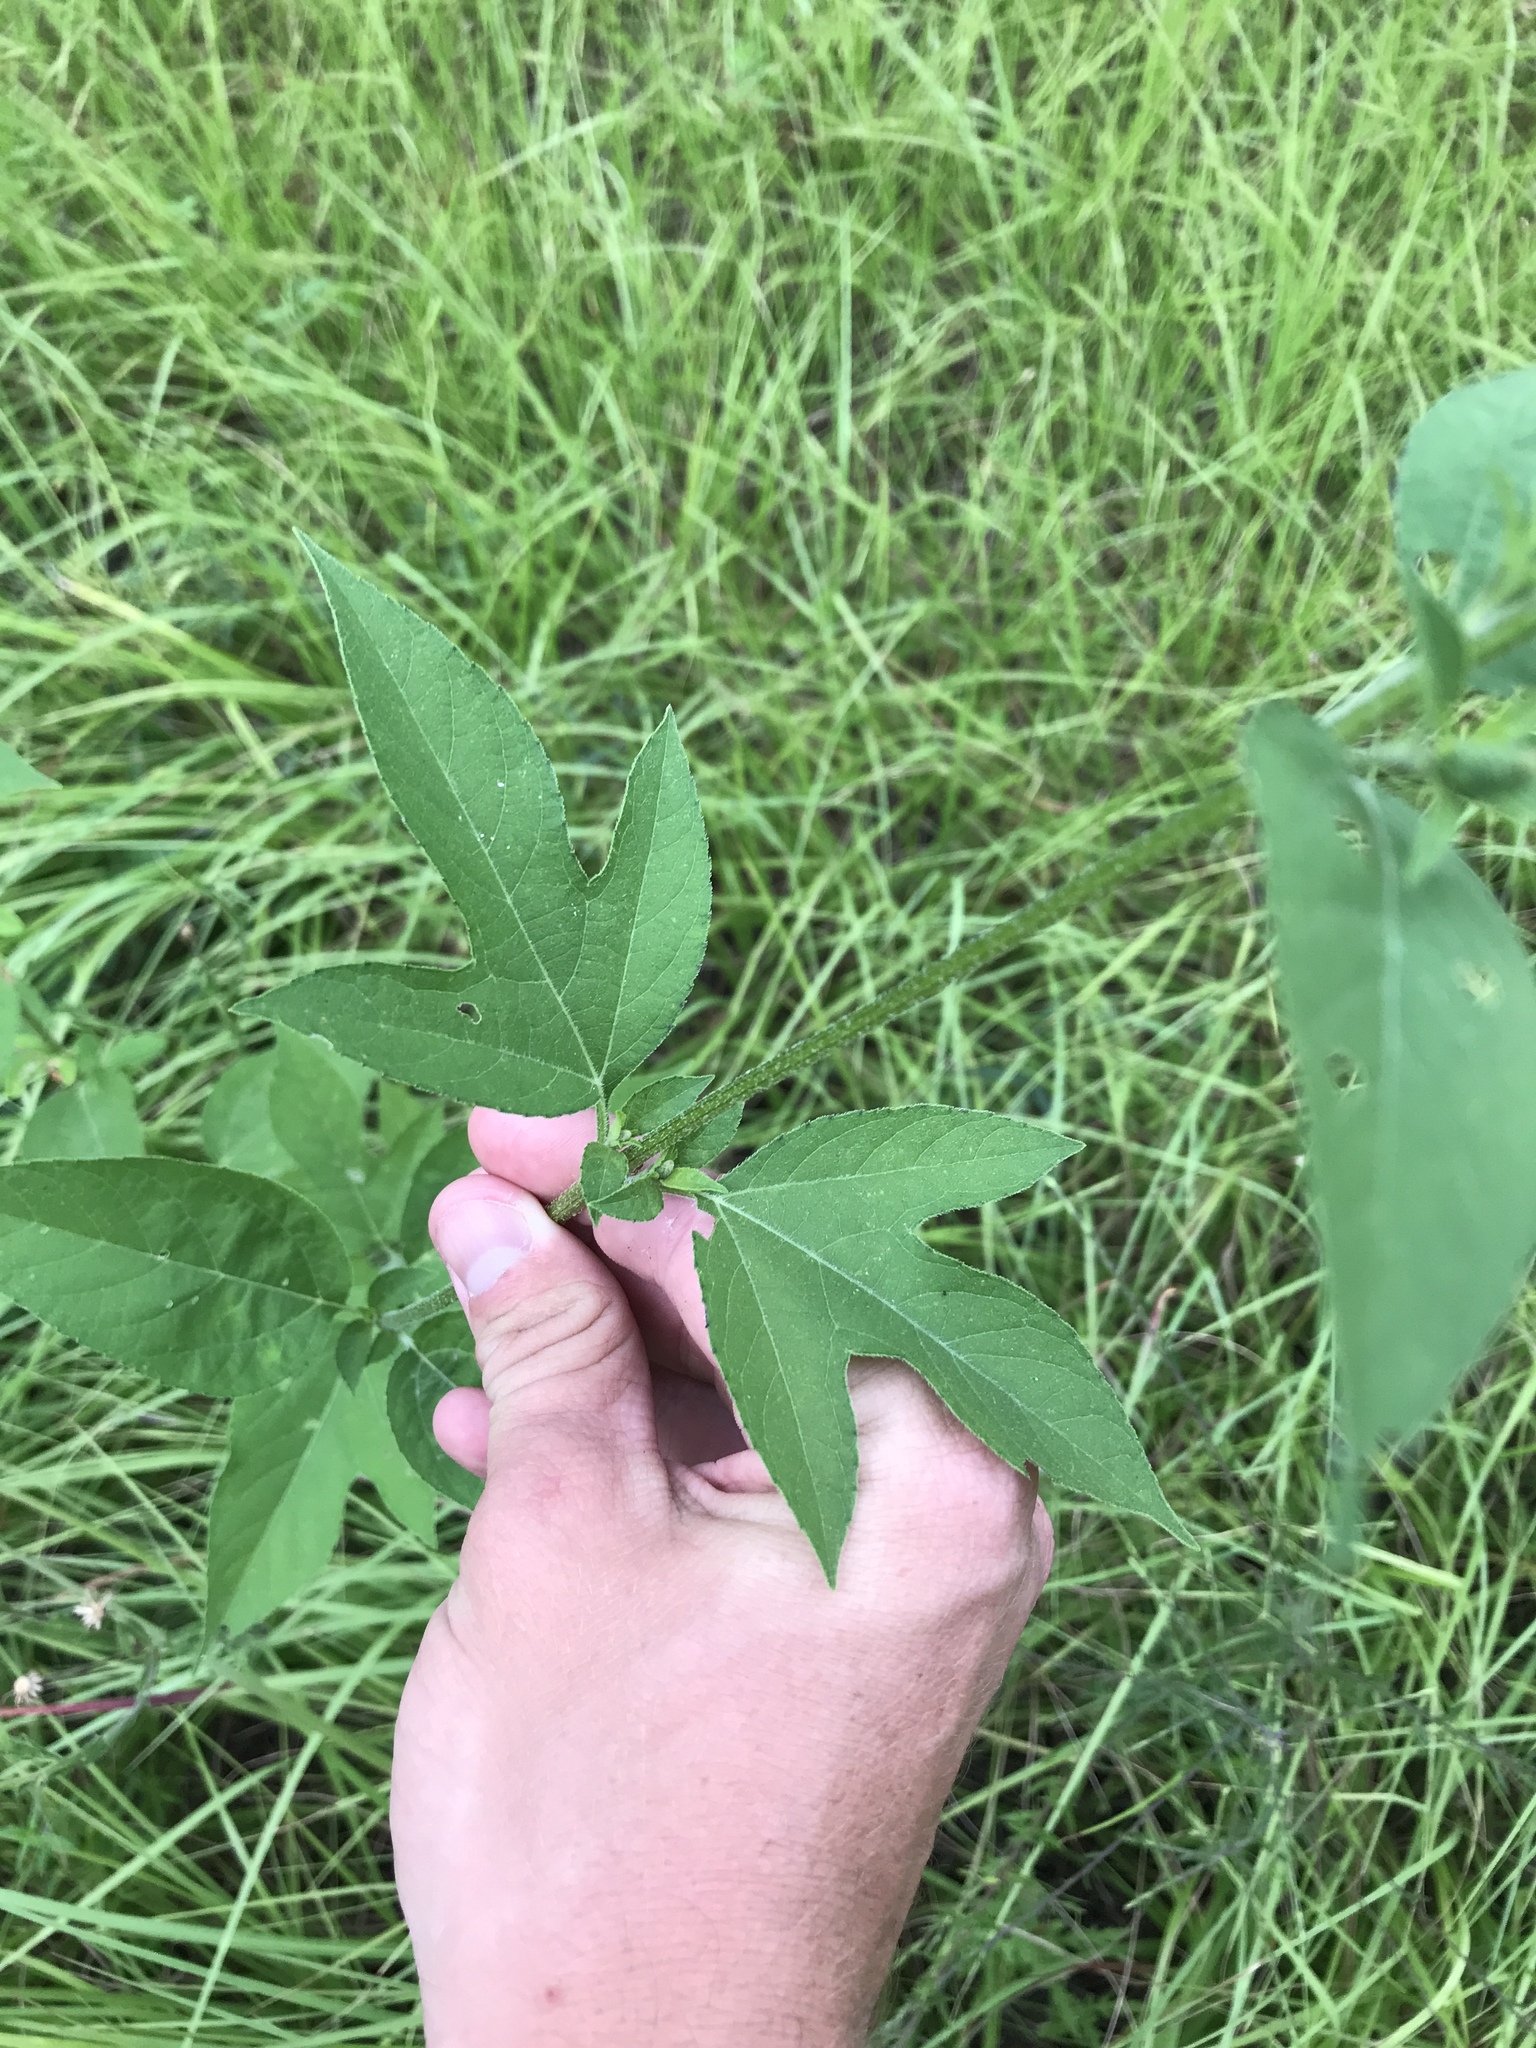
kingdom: Plantae
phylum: Tracheophyta
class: Magnoliopsida
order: Asterales
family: Asteraceae
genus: Ambrosia
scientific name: Ambrosia trifida
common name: Giant ragweed
